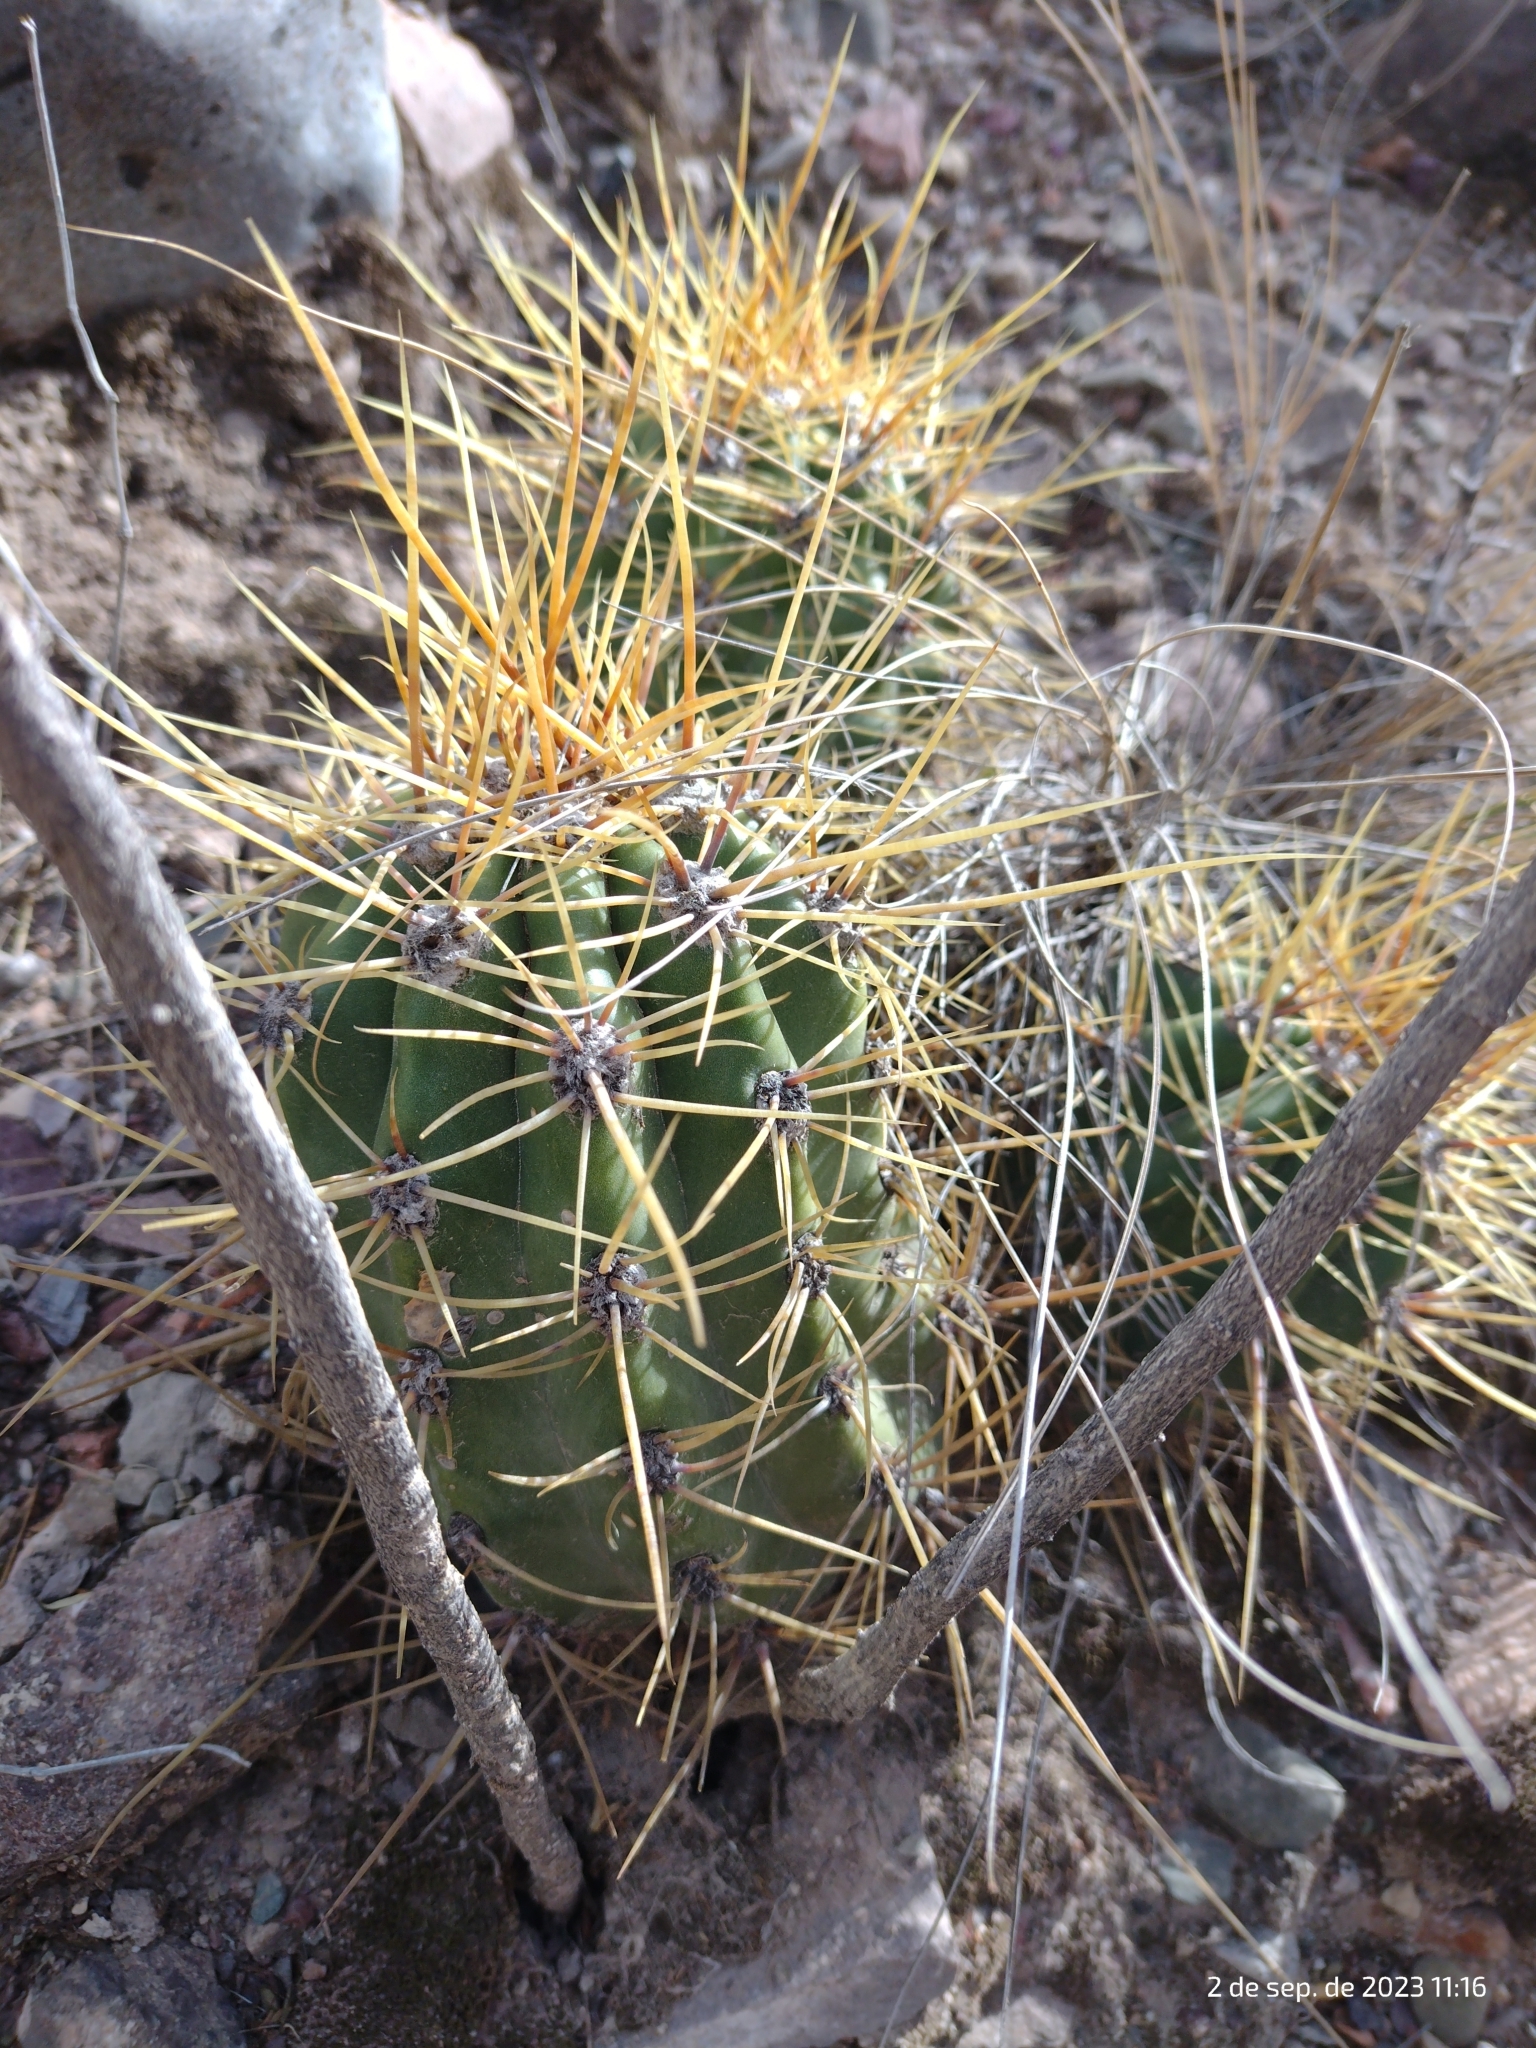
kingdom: Plantae
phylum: Tracheophyta
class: Magnoliopsida
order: Caryophyllales
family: Cactaceae
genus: Soehrensia
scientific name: Soehrensia candicans
